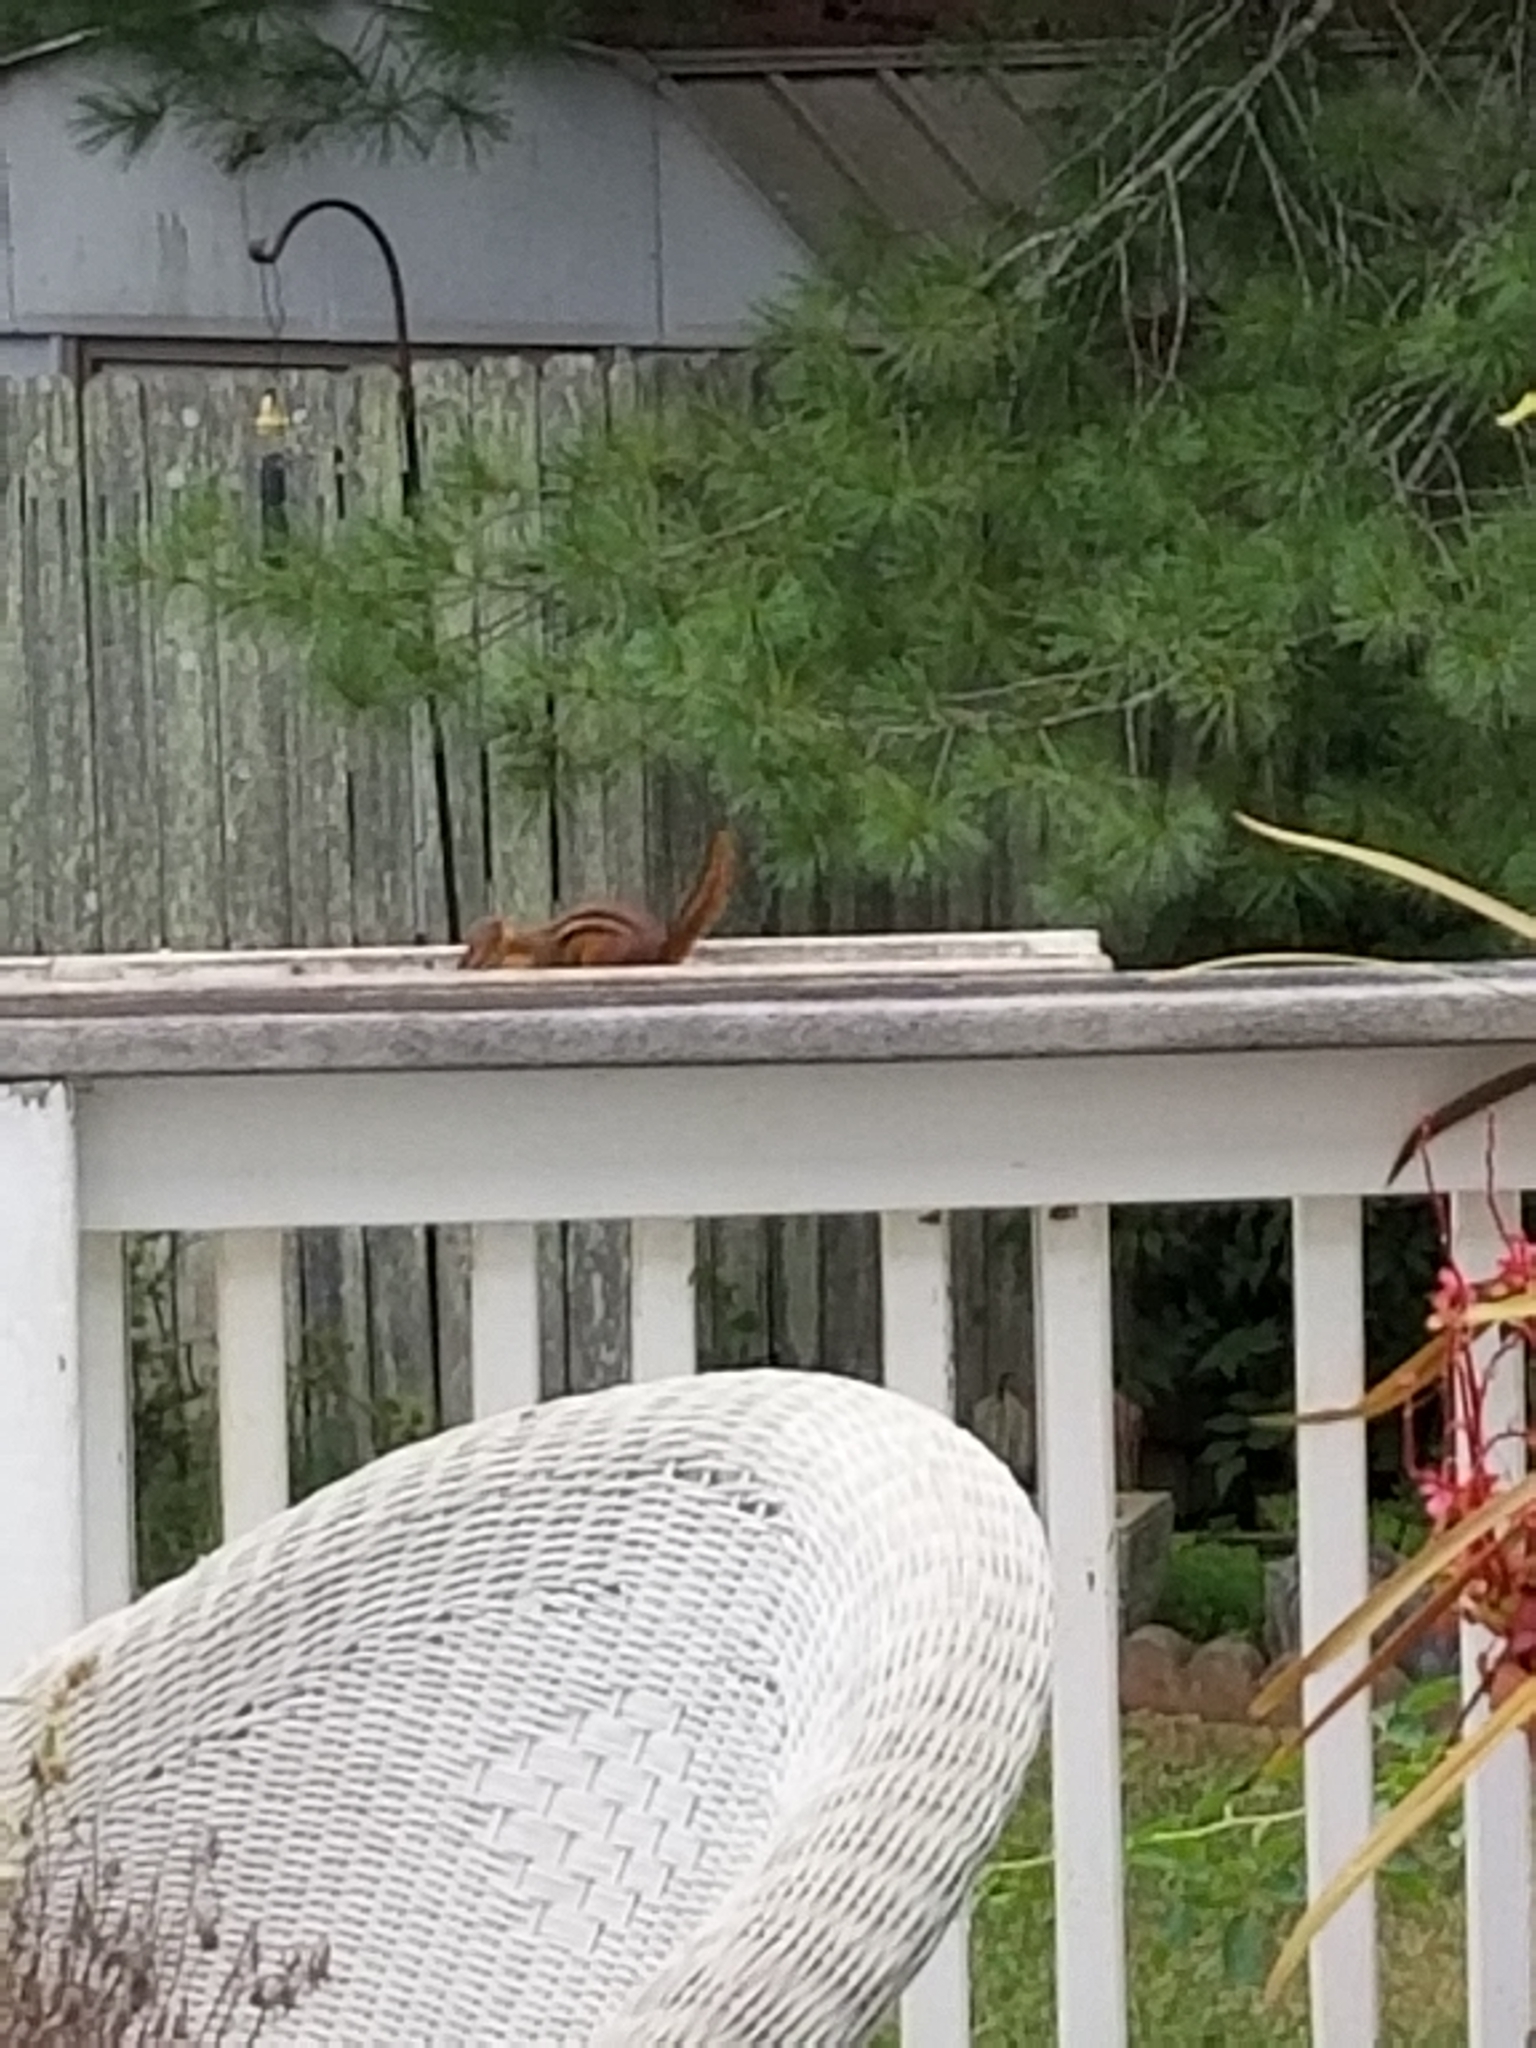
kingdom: Animalia
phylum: Chordata
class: Mammalia
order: Rodentia
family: Sciuridae
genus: Tamias
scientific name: Tamias striatus
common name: Eastern chipmunk
